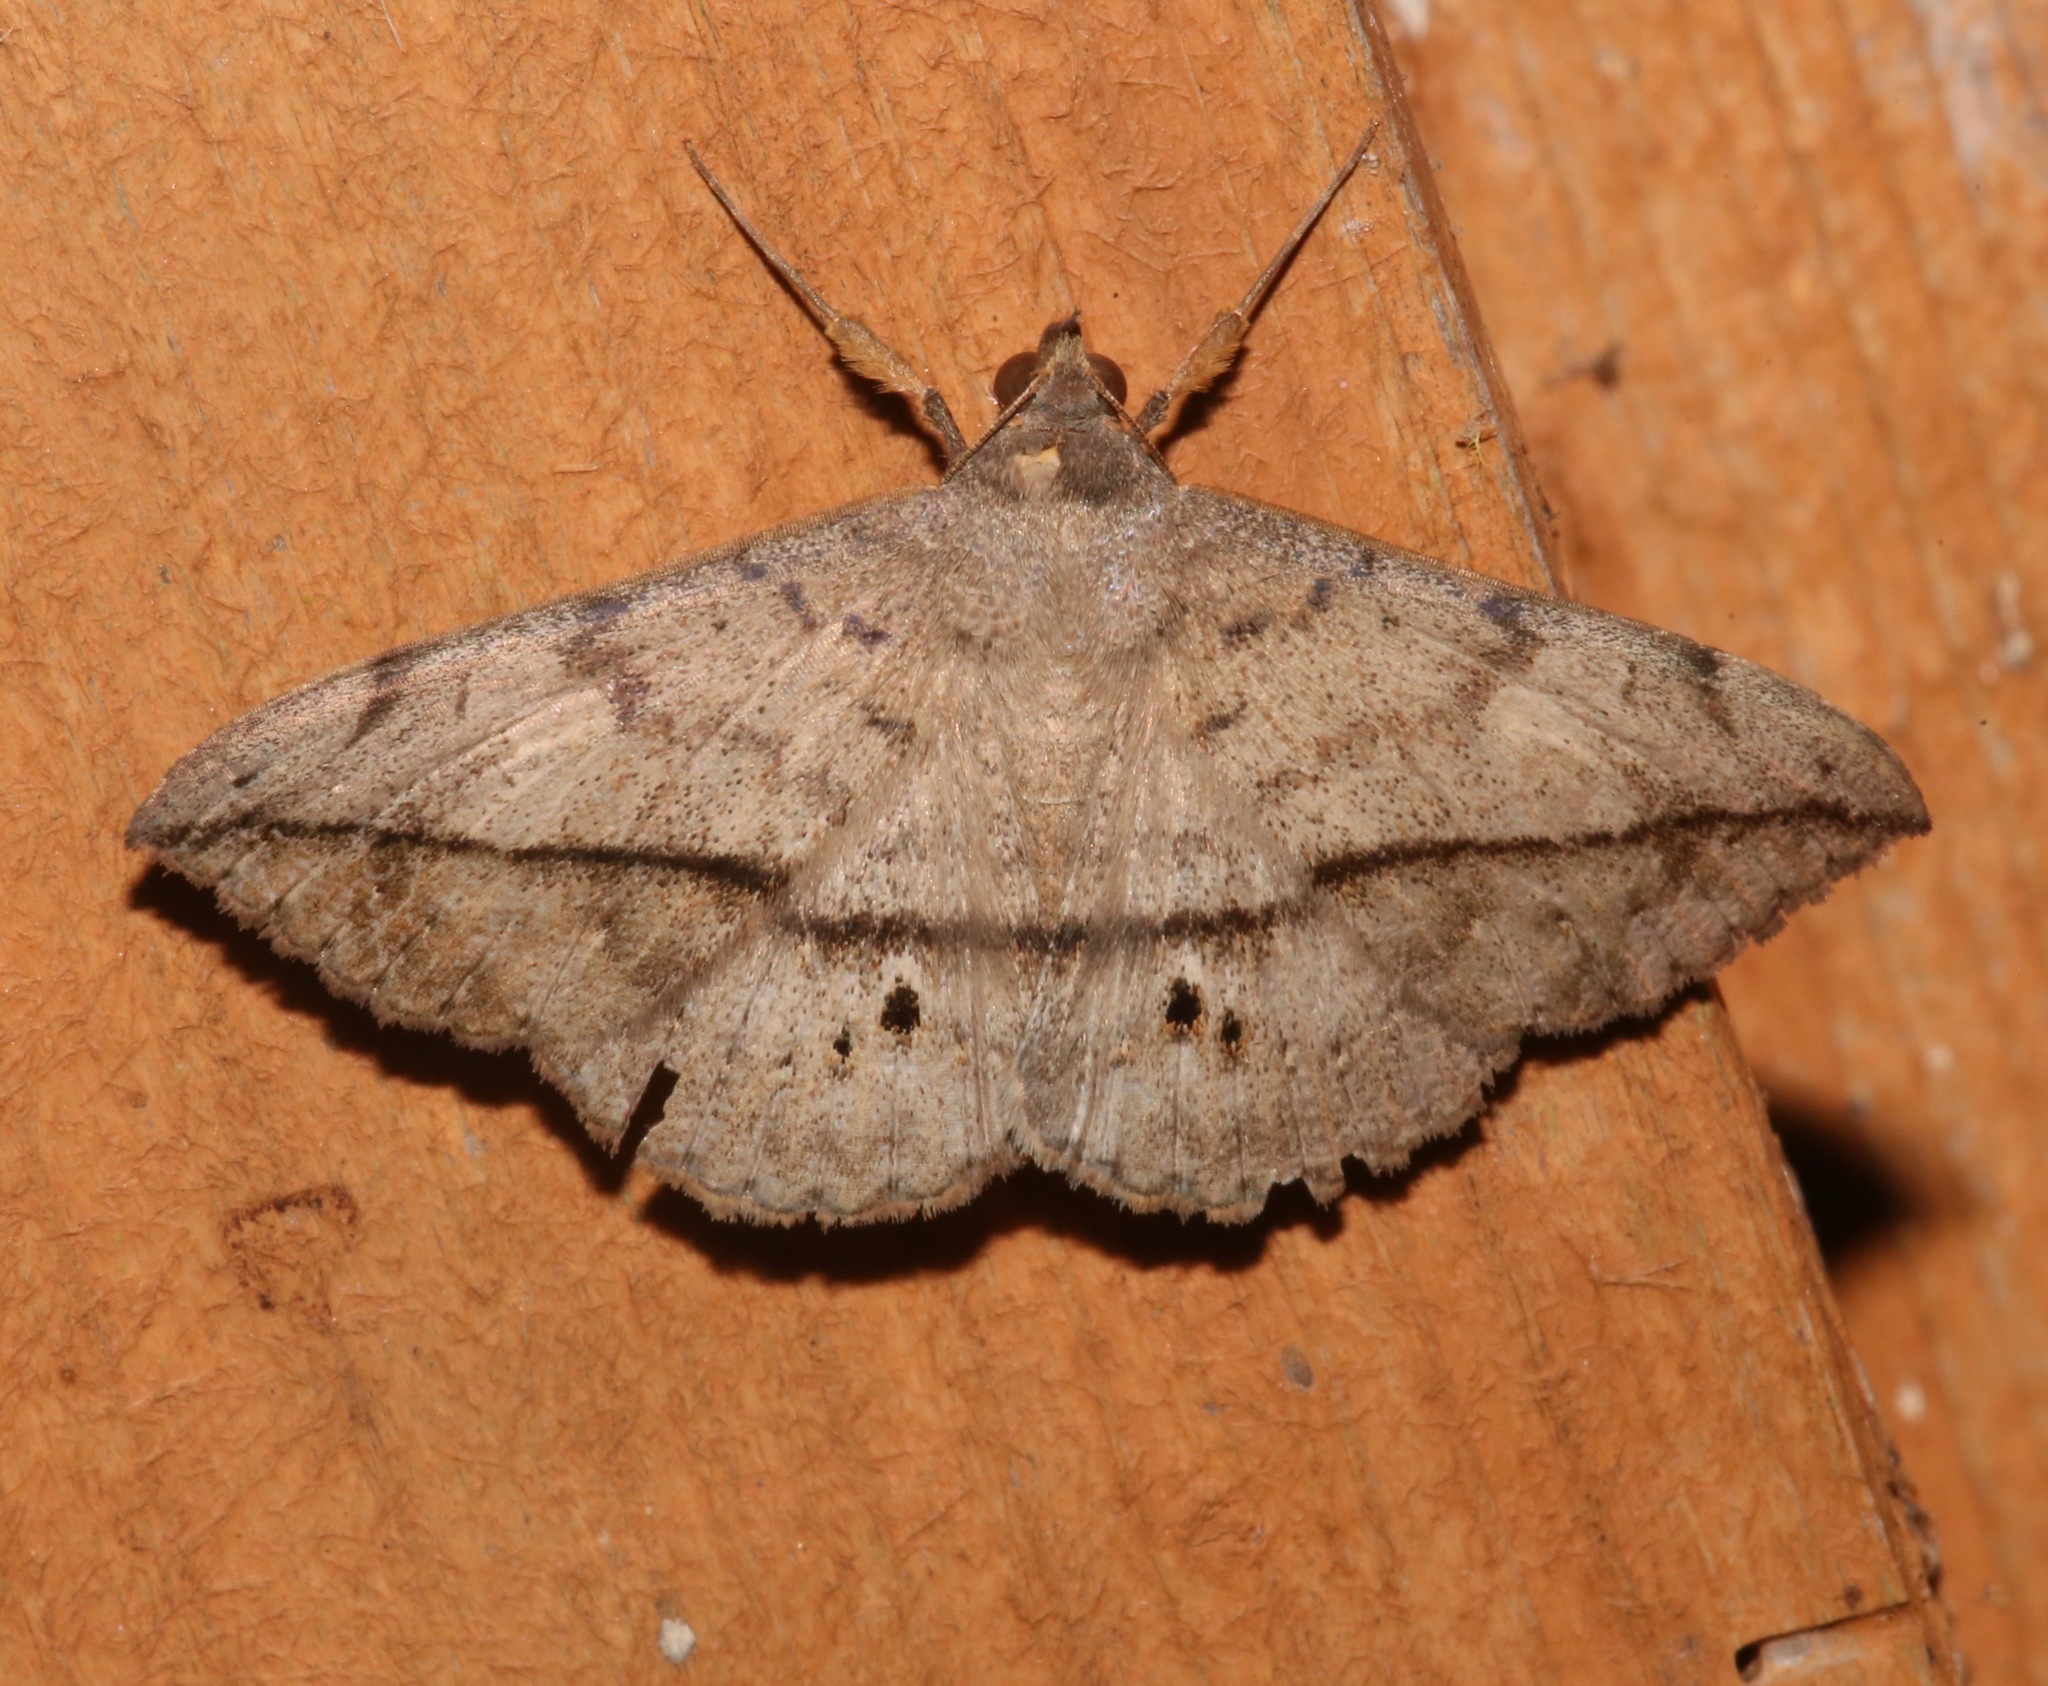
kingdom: Animalia
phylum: Arthropoda
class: Insecta
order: Lepidoptera
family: Erebidae
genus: Anticarsia
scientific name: Anticarsia gemmatalis
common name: Cutworm moth
